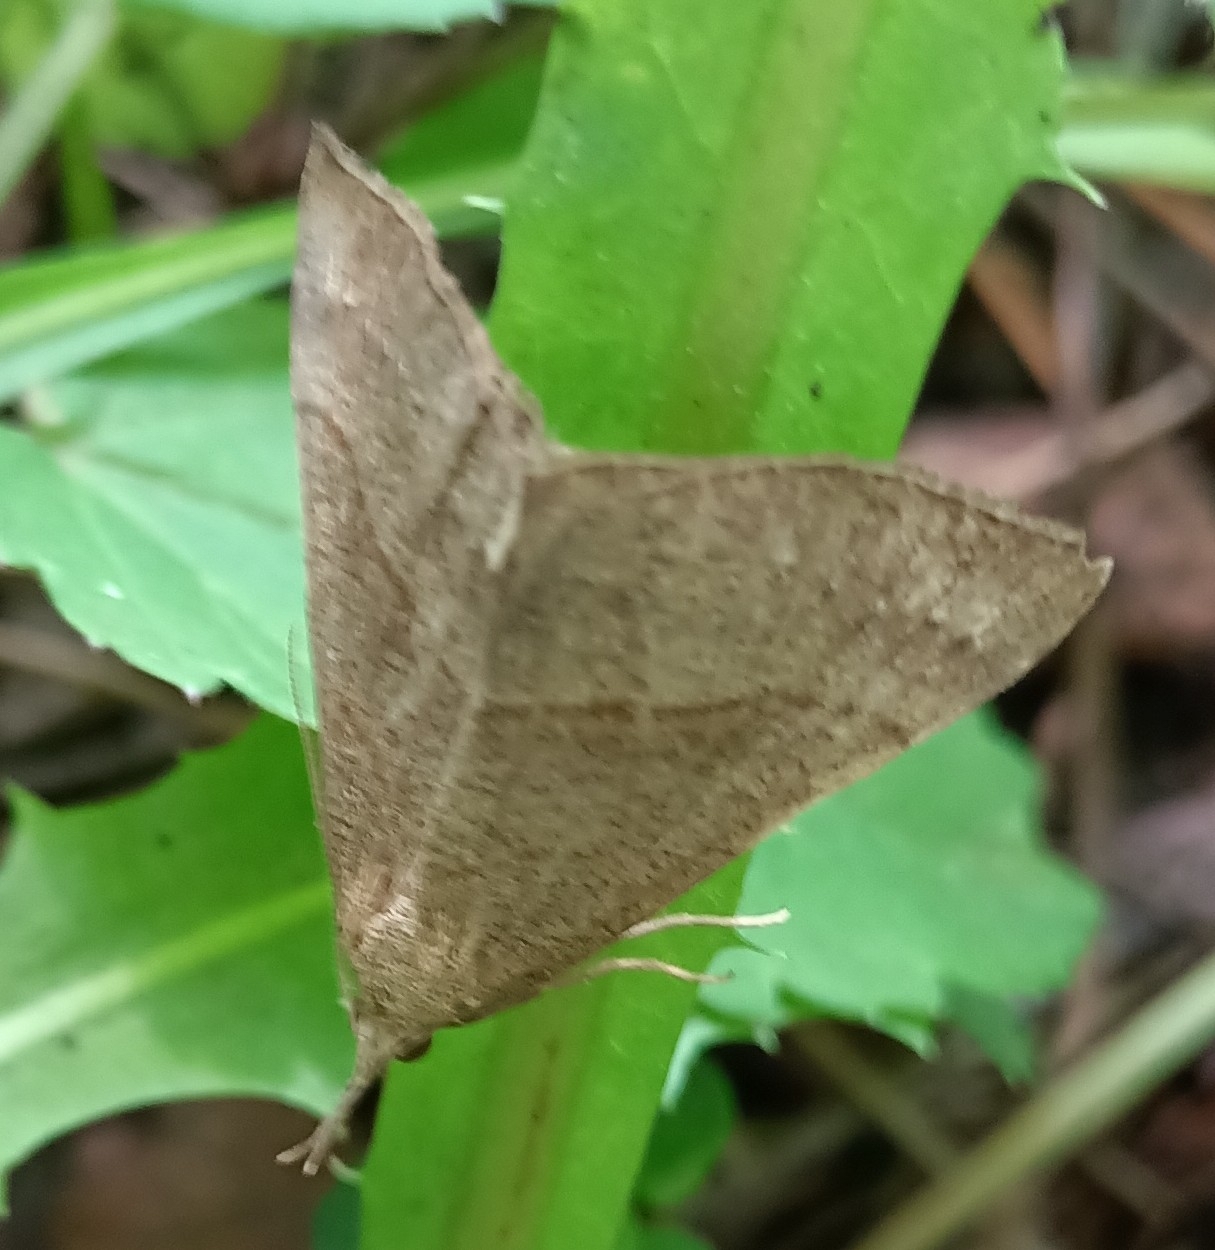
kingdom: Animalia
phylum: Arthropoda
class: Insecta
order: Lepidoptera
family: Erebidae
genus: Hypena
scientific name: Hypena proboscidalis
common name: Snout
